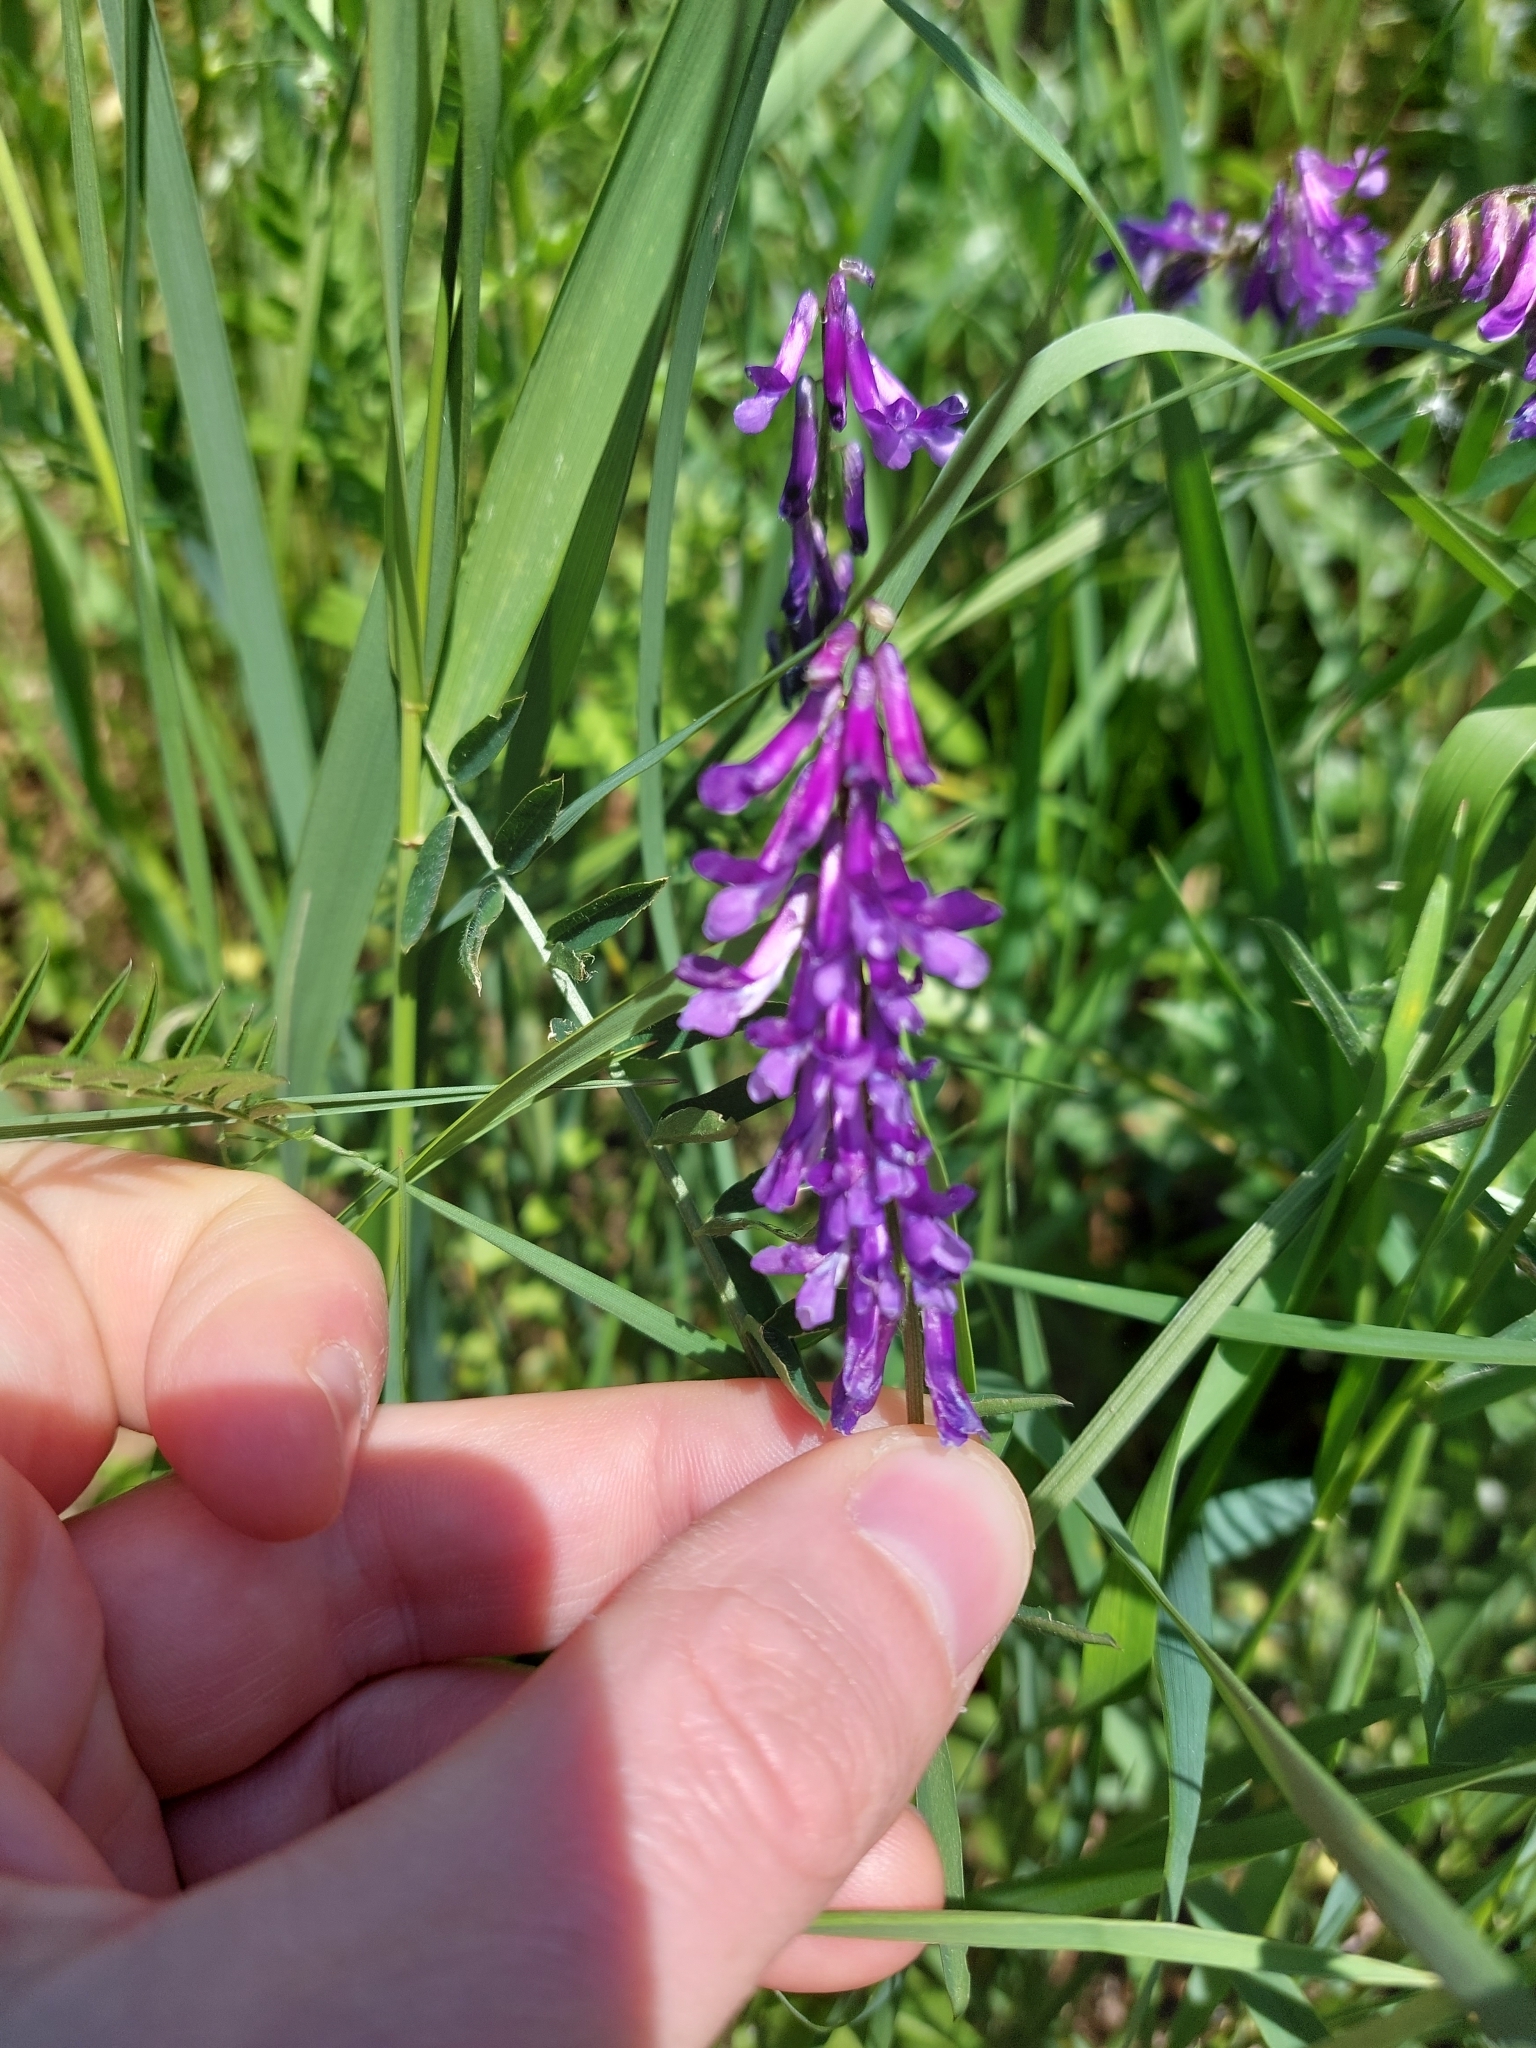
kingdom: Plantae
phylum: Tracheophyta
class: Magnoliopsida
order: Fabales
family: Fabaceae
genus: Vicia
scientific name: Vicia villosa
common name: Fodder vetch
